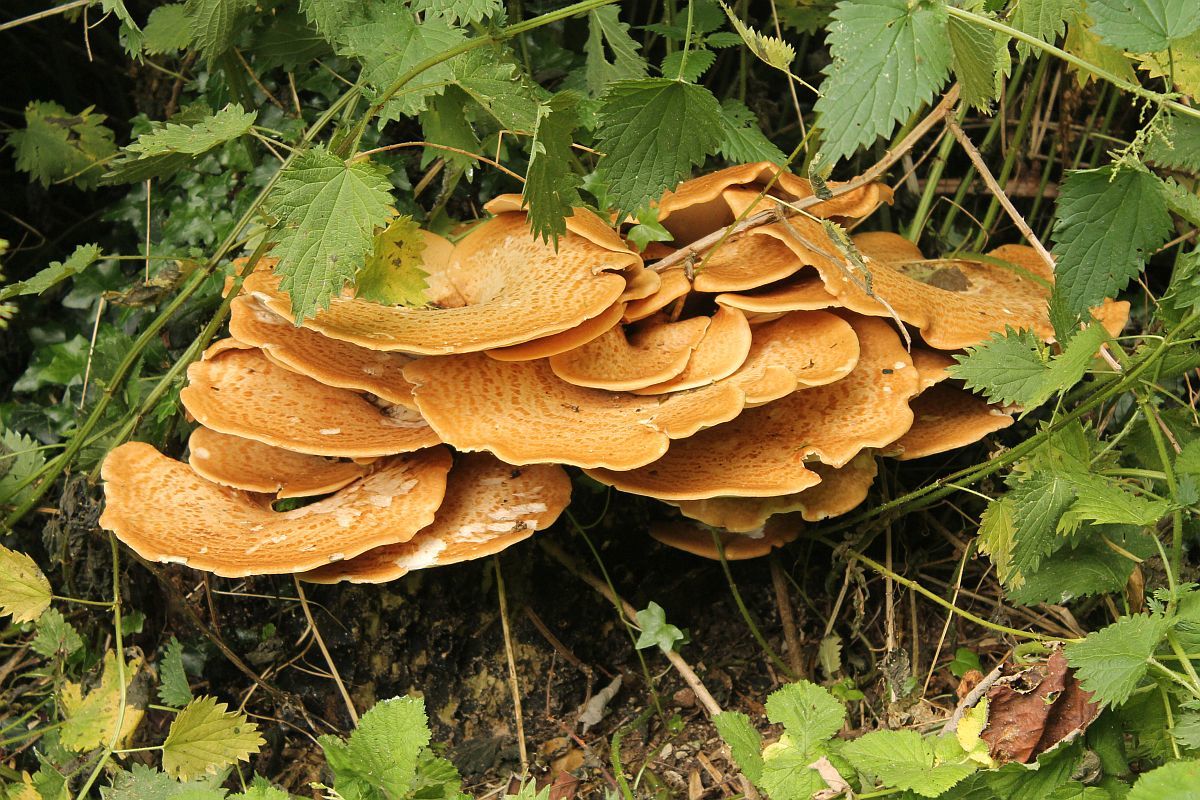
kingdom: Fungi
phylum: Basidiomycota
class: Agaricomycetes
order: Polyporales
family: Polyporaceae
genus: Cerioporus
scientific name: Cerioporus squamosus
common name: Dryad's saddle
